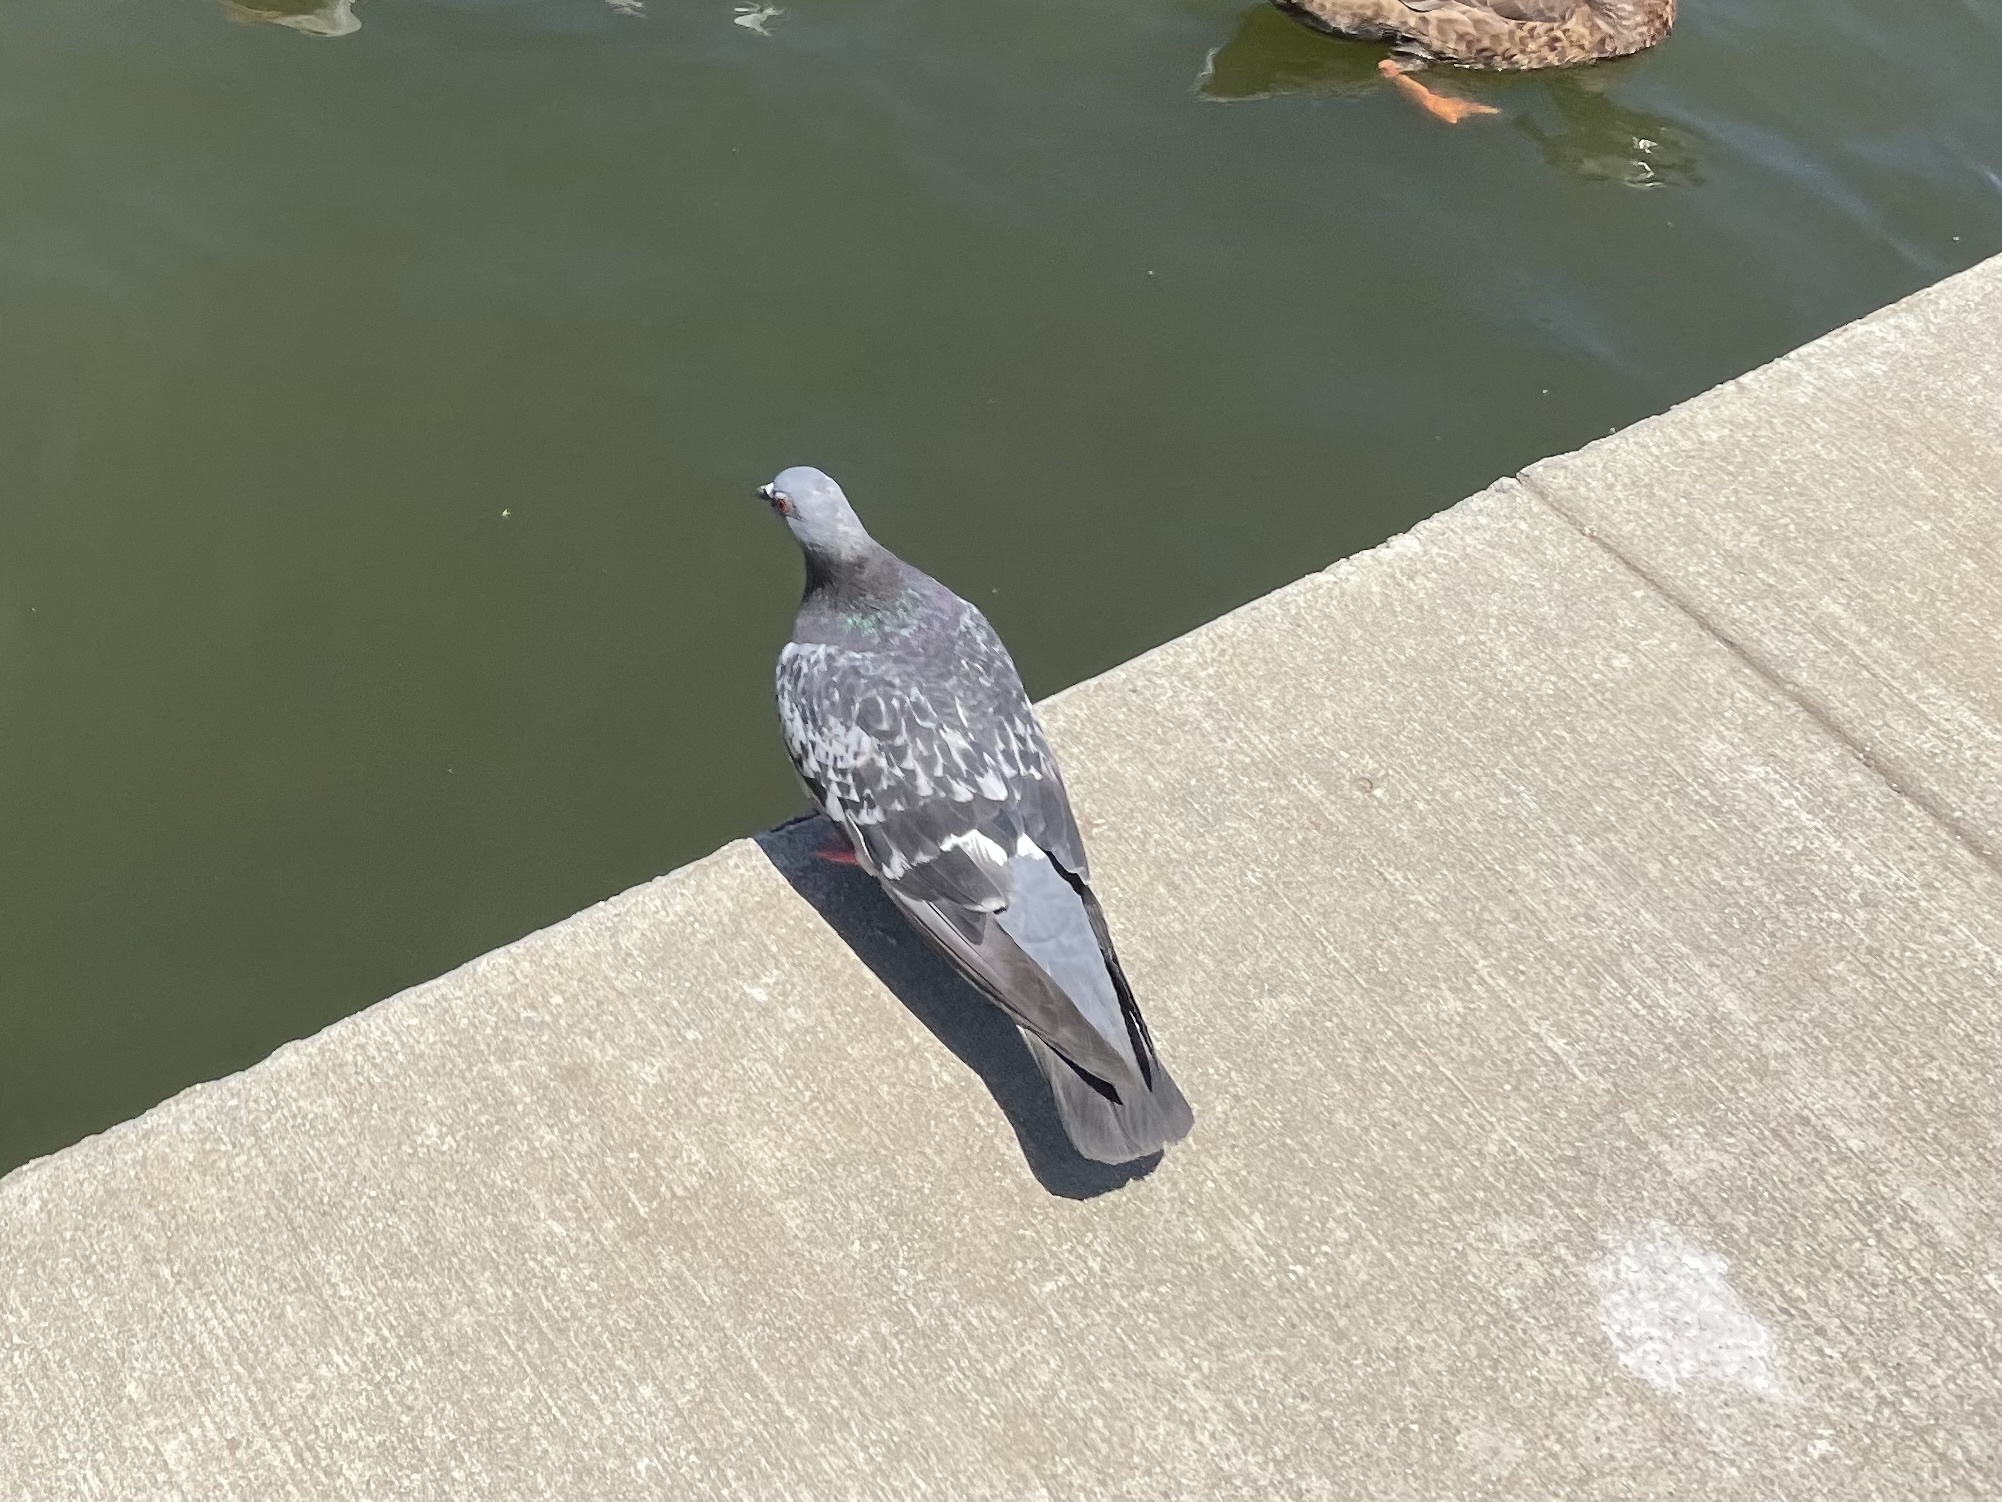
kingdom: Animalia
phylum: Chordata
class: Aves
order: Columbiformes
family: Columbidae
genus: Columba
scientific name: Columba livia
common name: Rock pigeon
